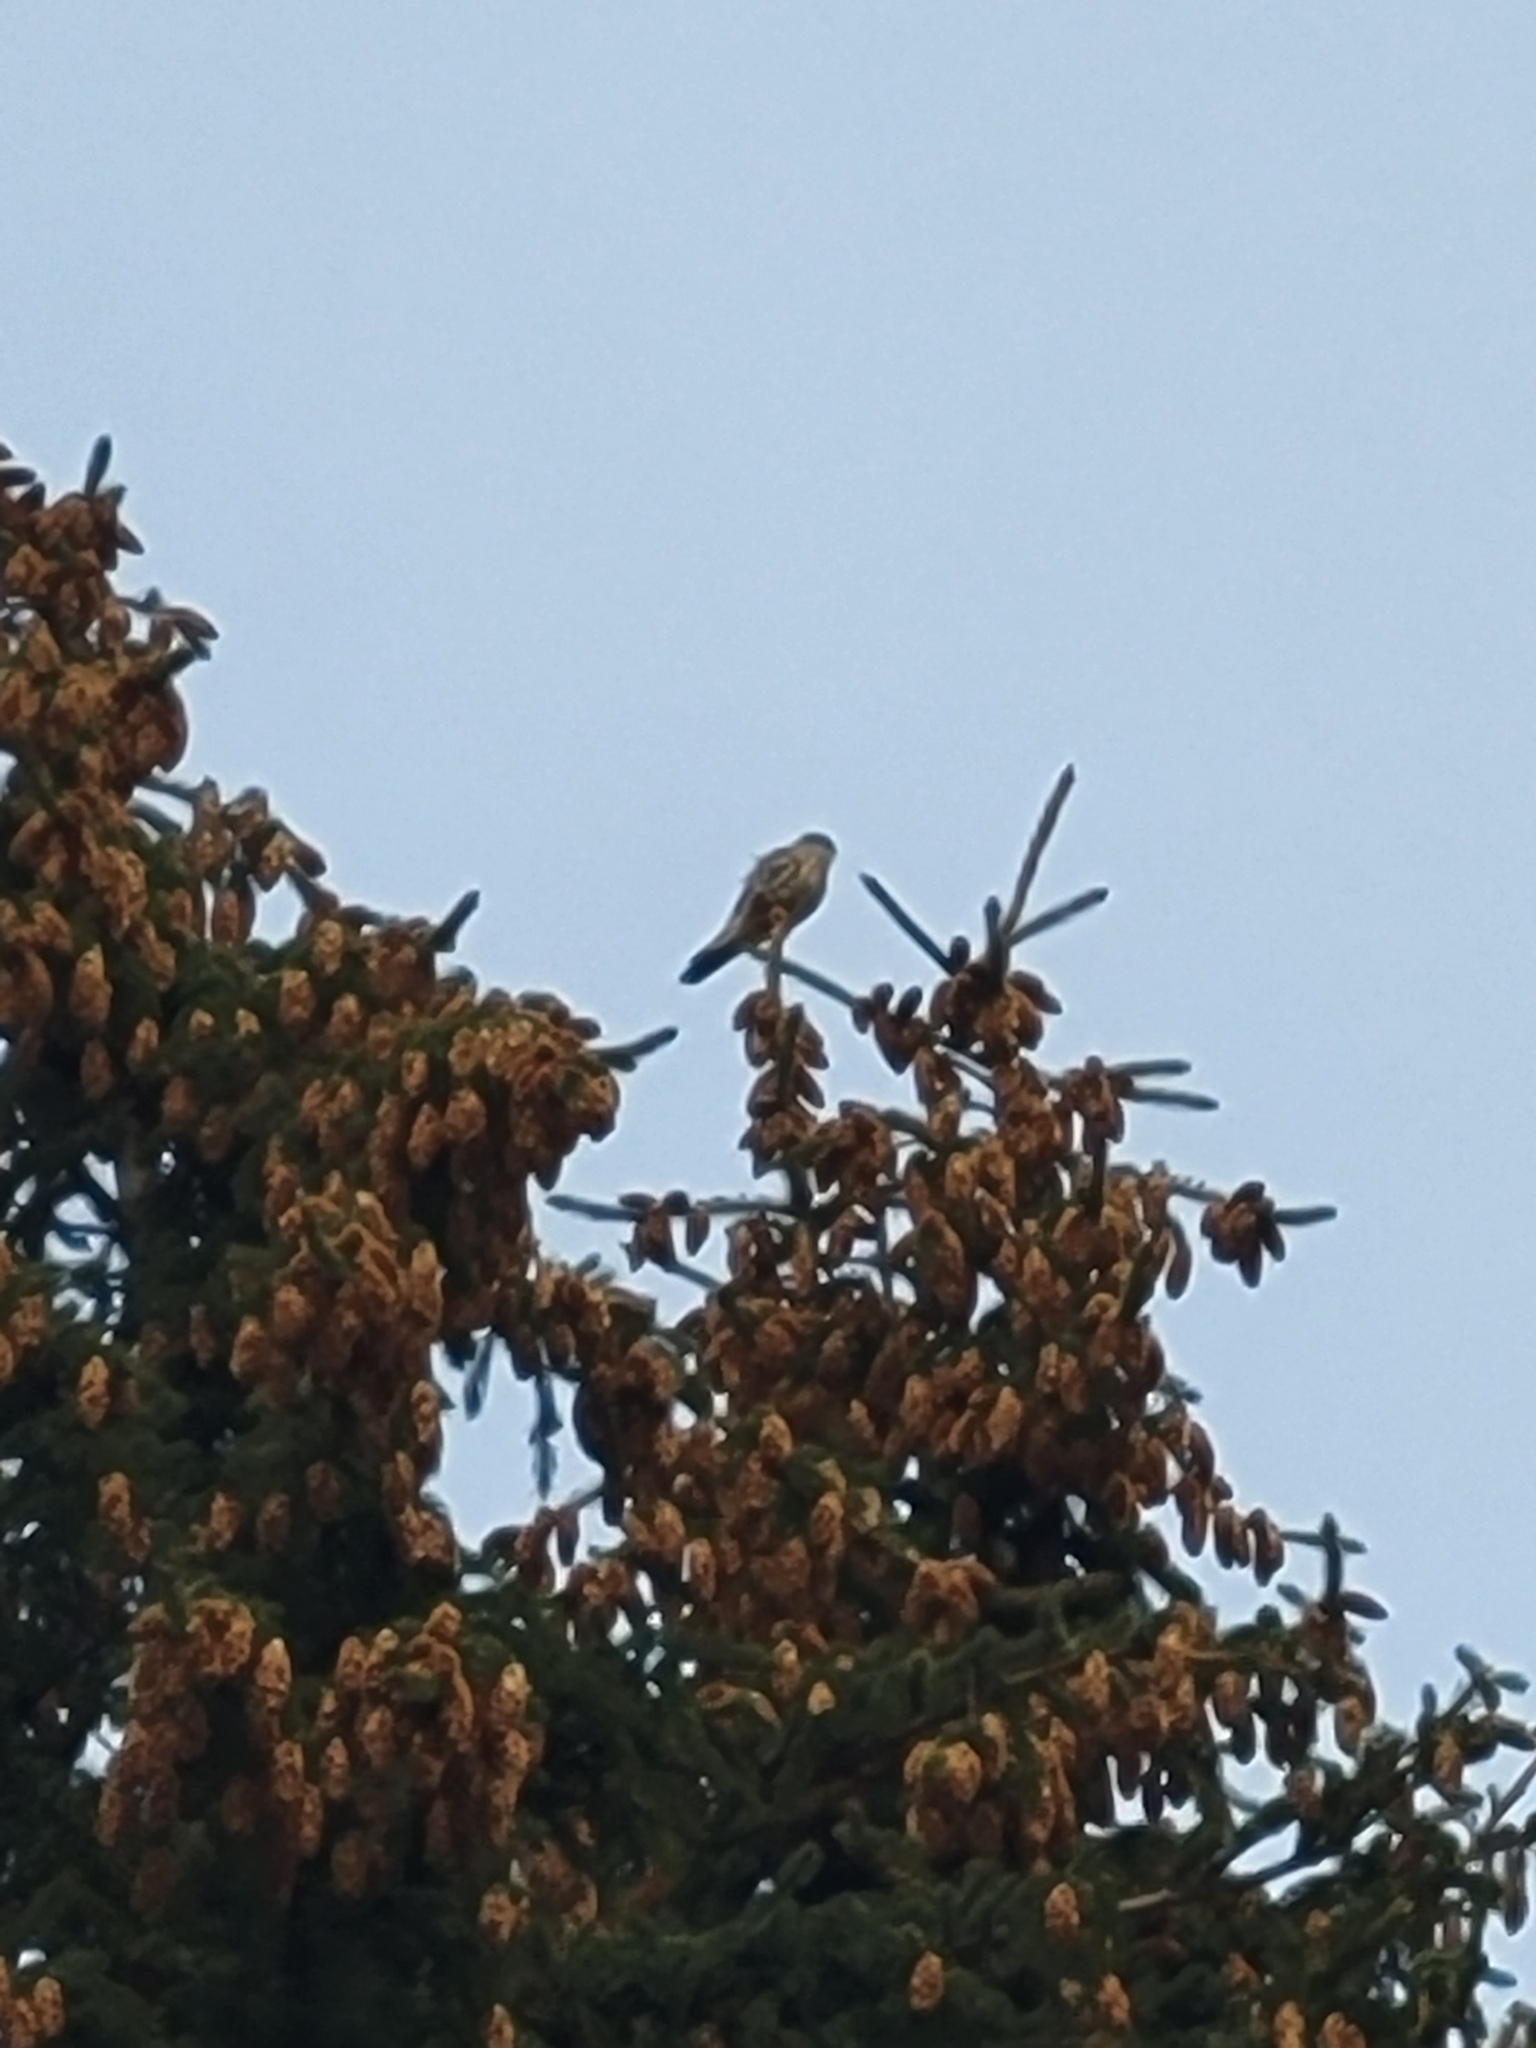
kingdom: Animalia
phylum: Chordata
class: Aves
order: Falconiformes
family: Falconidae
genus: Falco
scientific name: Falco columbarius
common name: Merlin
